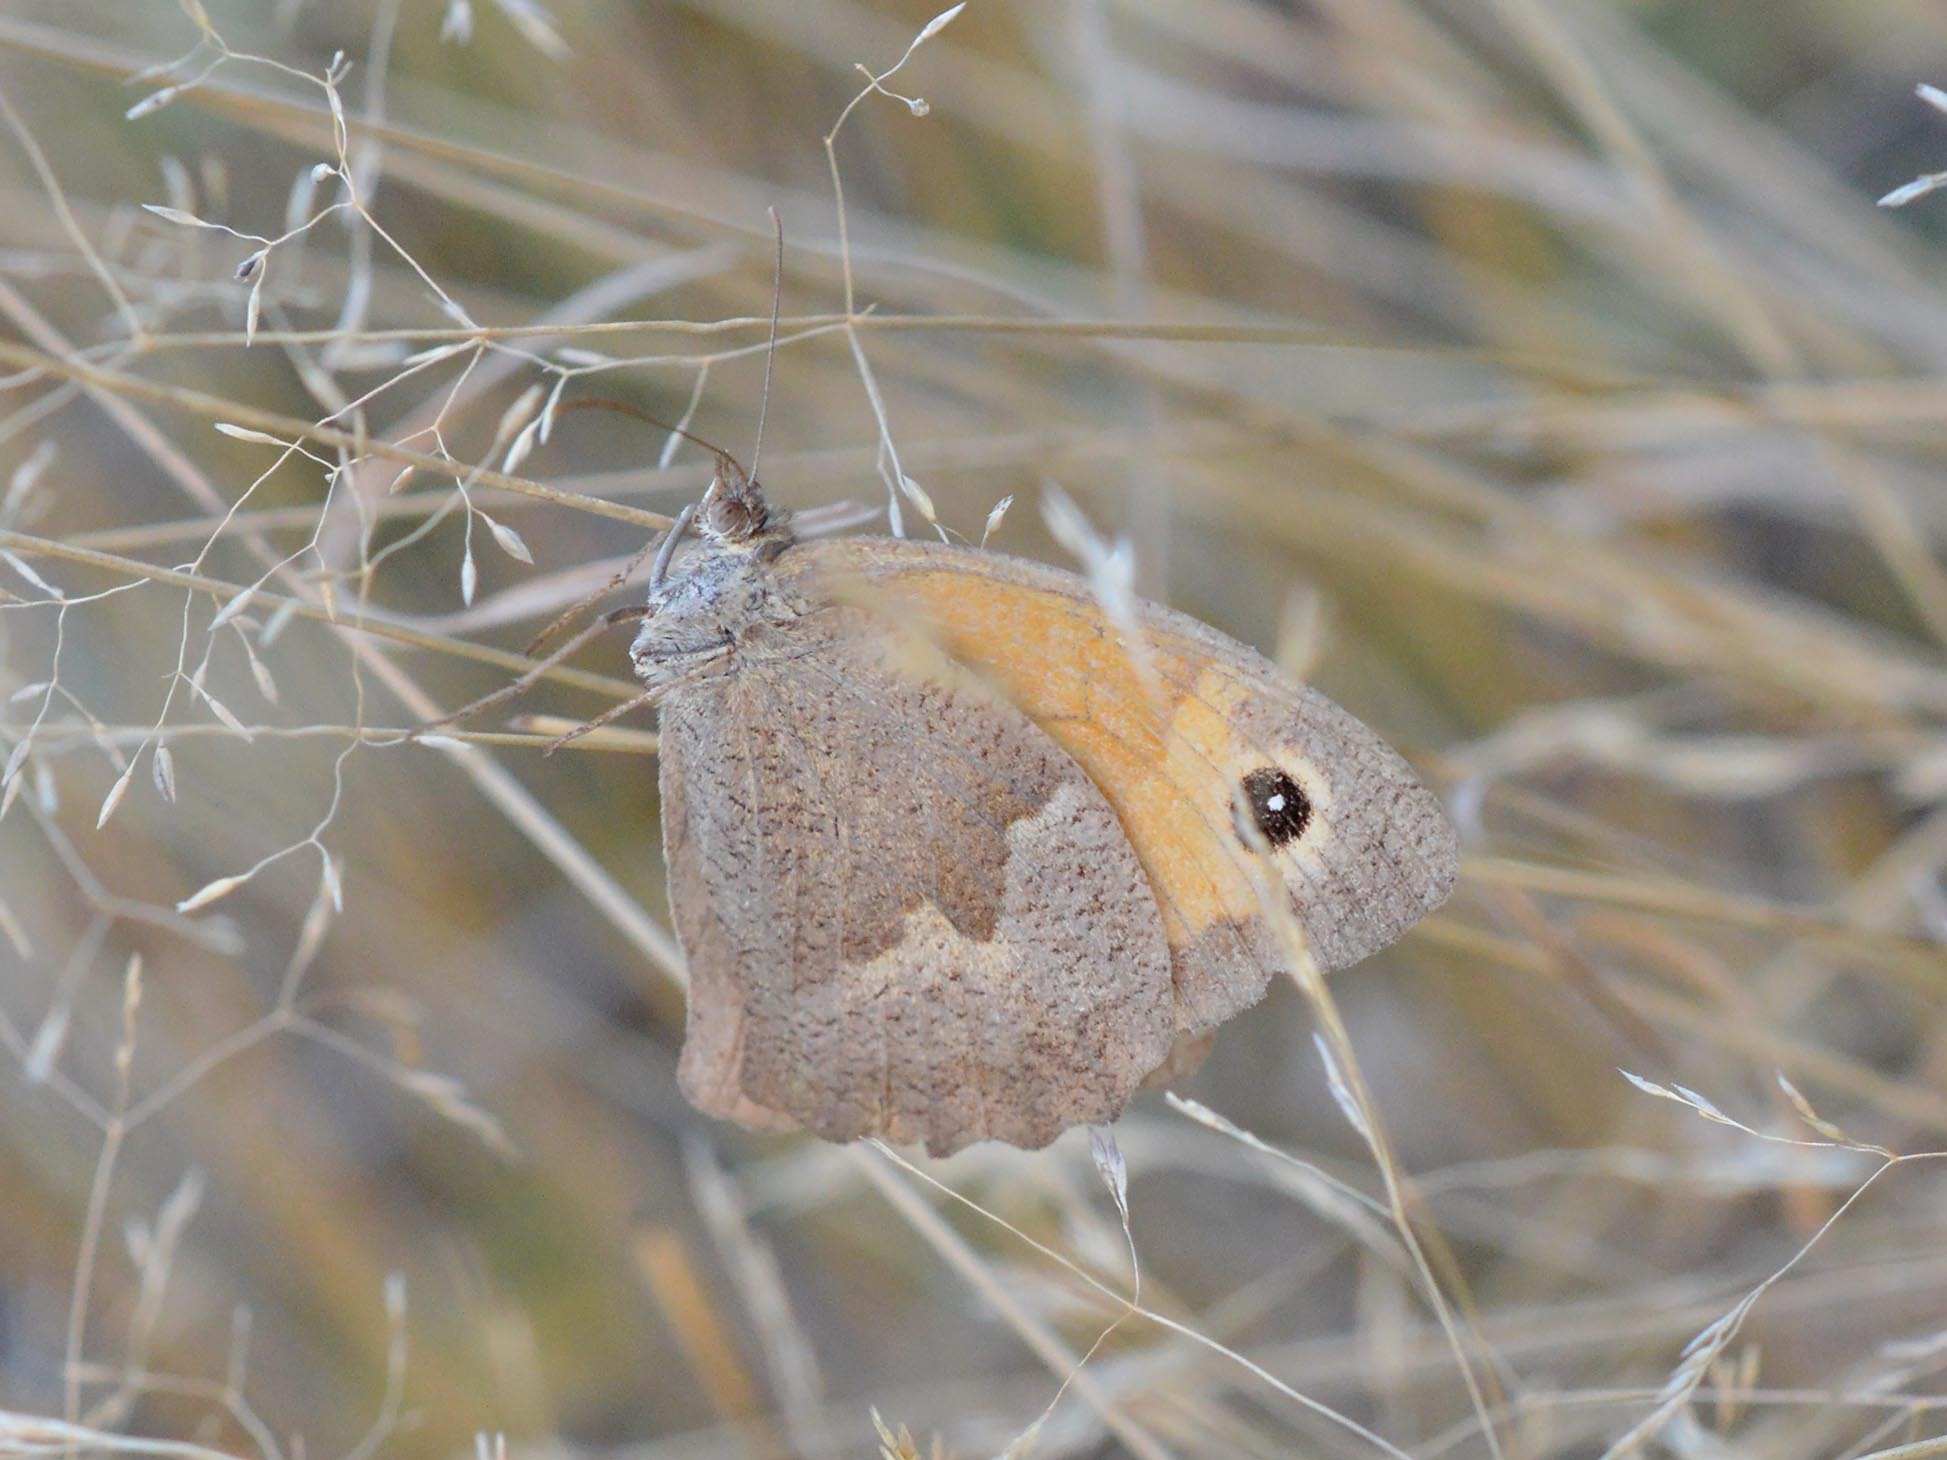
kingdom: Animalia
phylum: Arthropoda
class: Insecta
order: Lepidoptera
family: Nymphalidae
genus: Maniola
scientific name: Maniola jurtina
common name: Meadow brown
